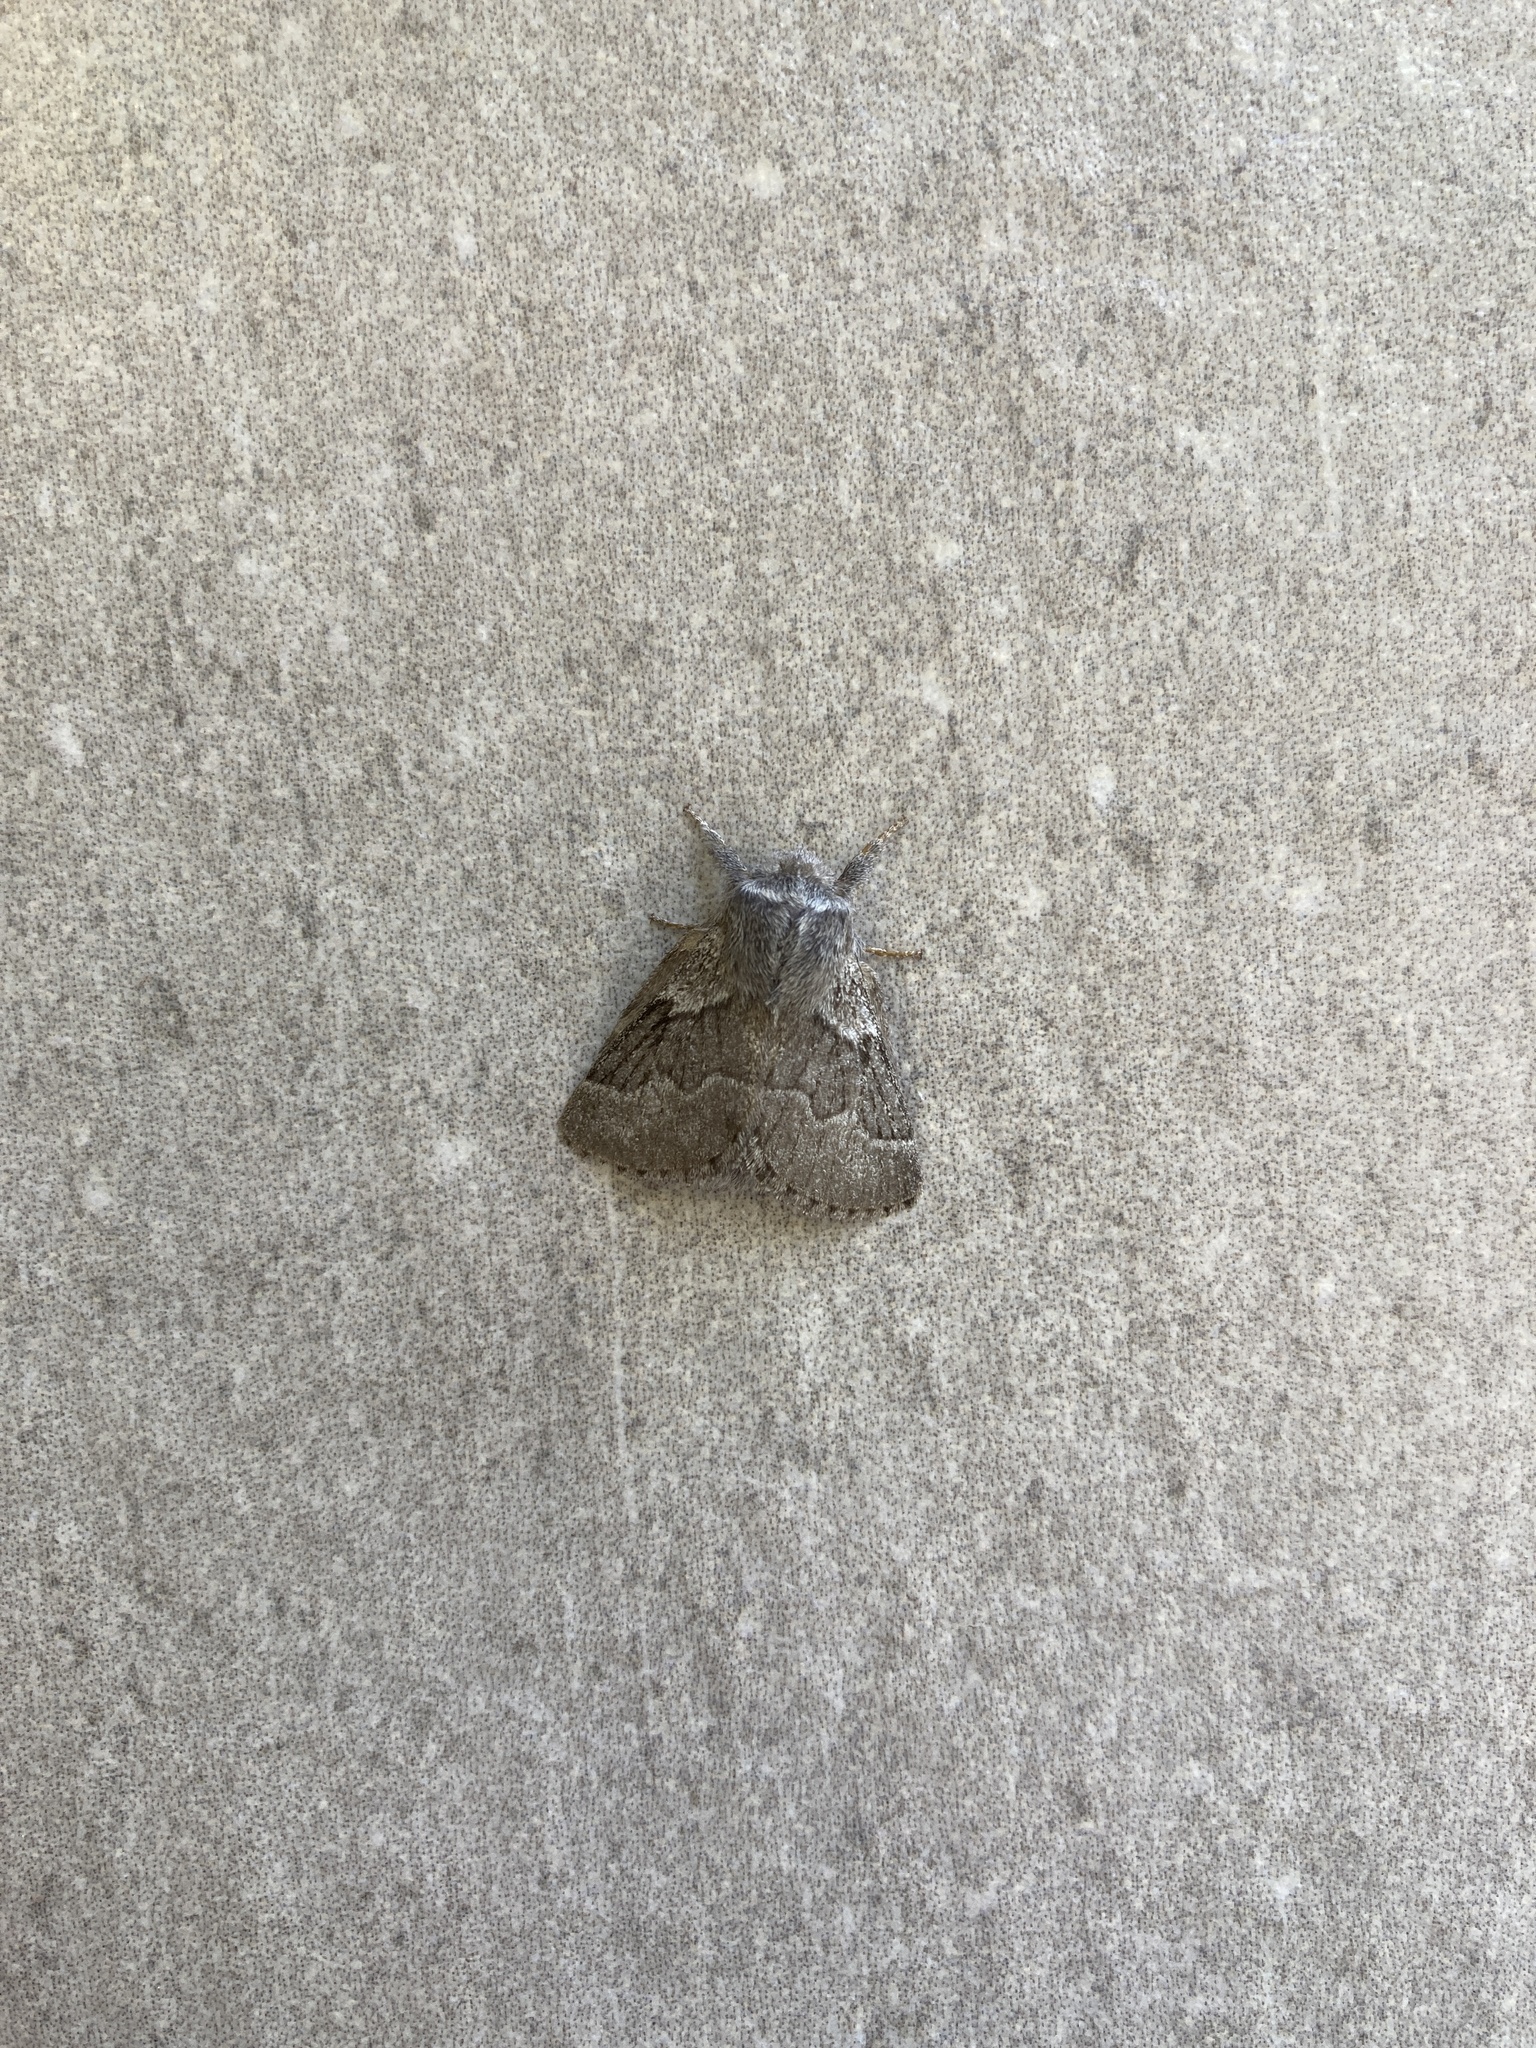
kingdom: Animalia
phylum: Arthropoda
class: Insecta
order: Lepidoptera
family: Lasiocampidae
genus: Trichiura
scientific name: Trichiura crataegi
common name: Pale eggar
